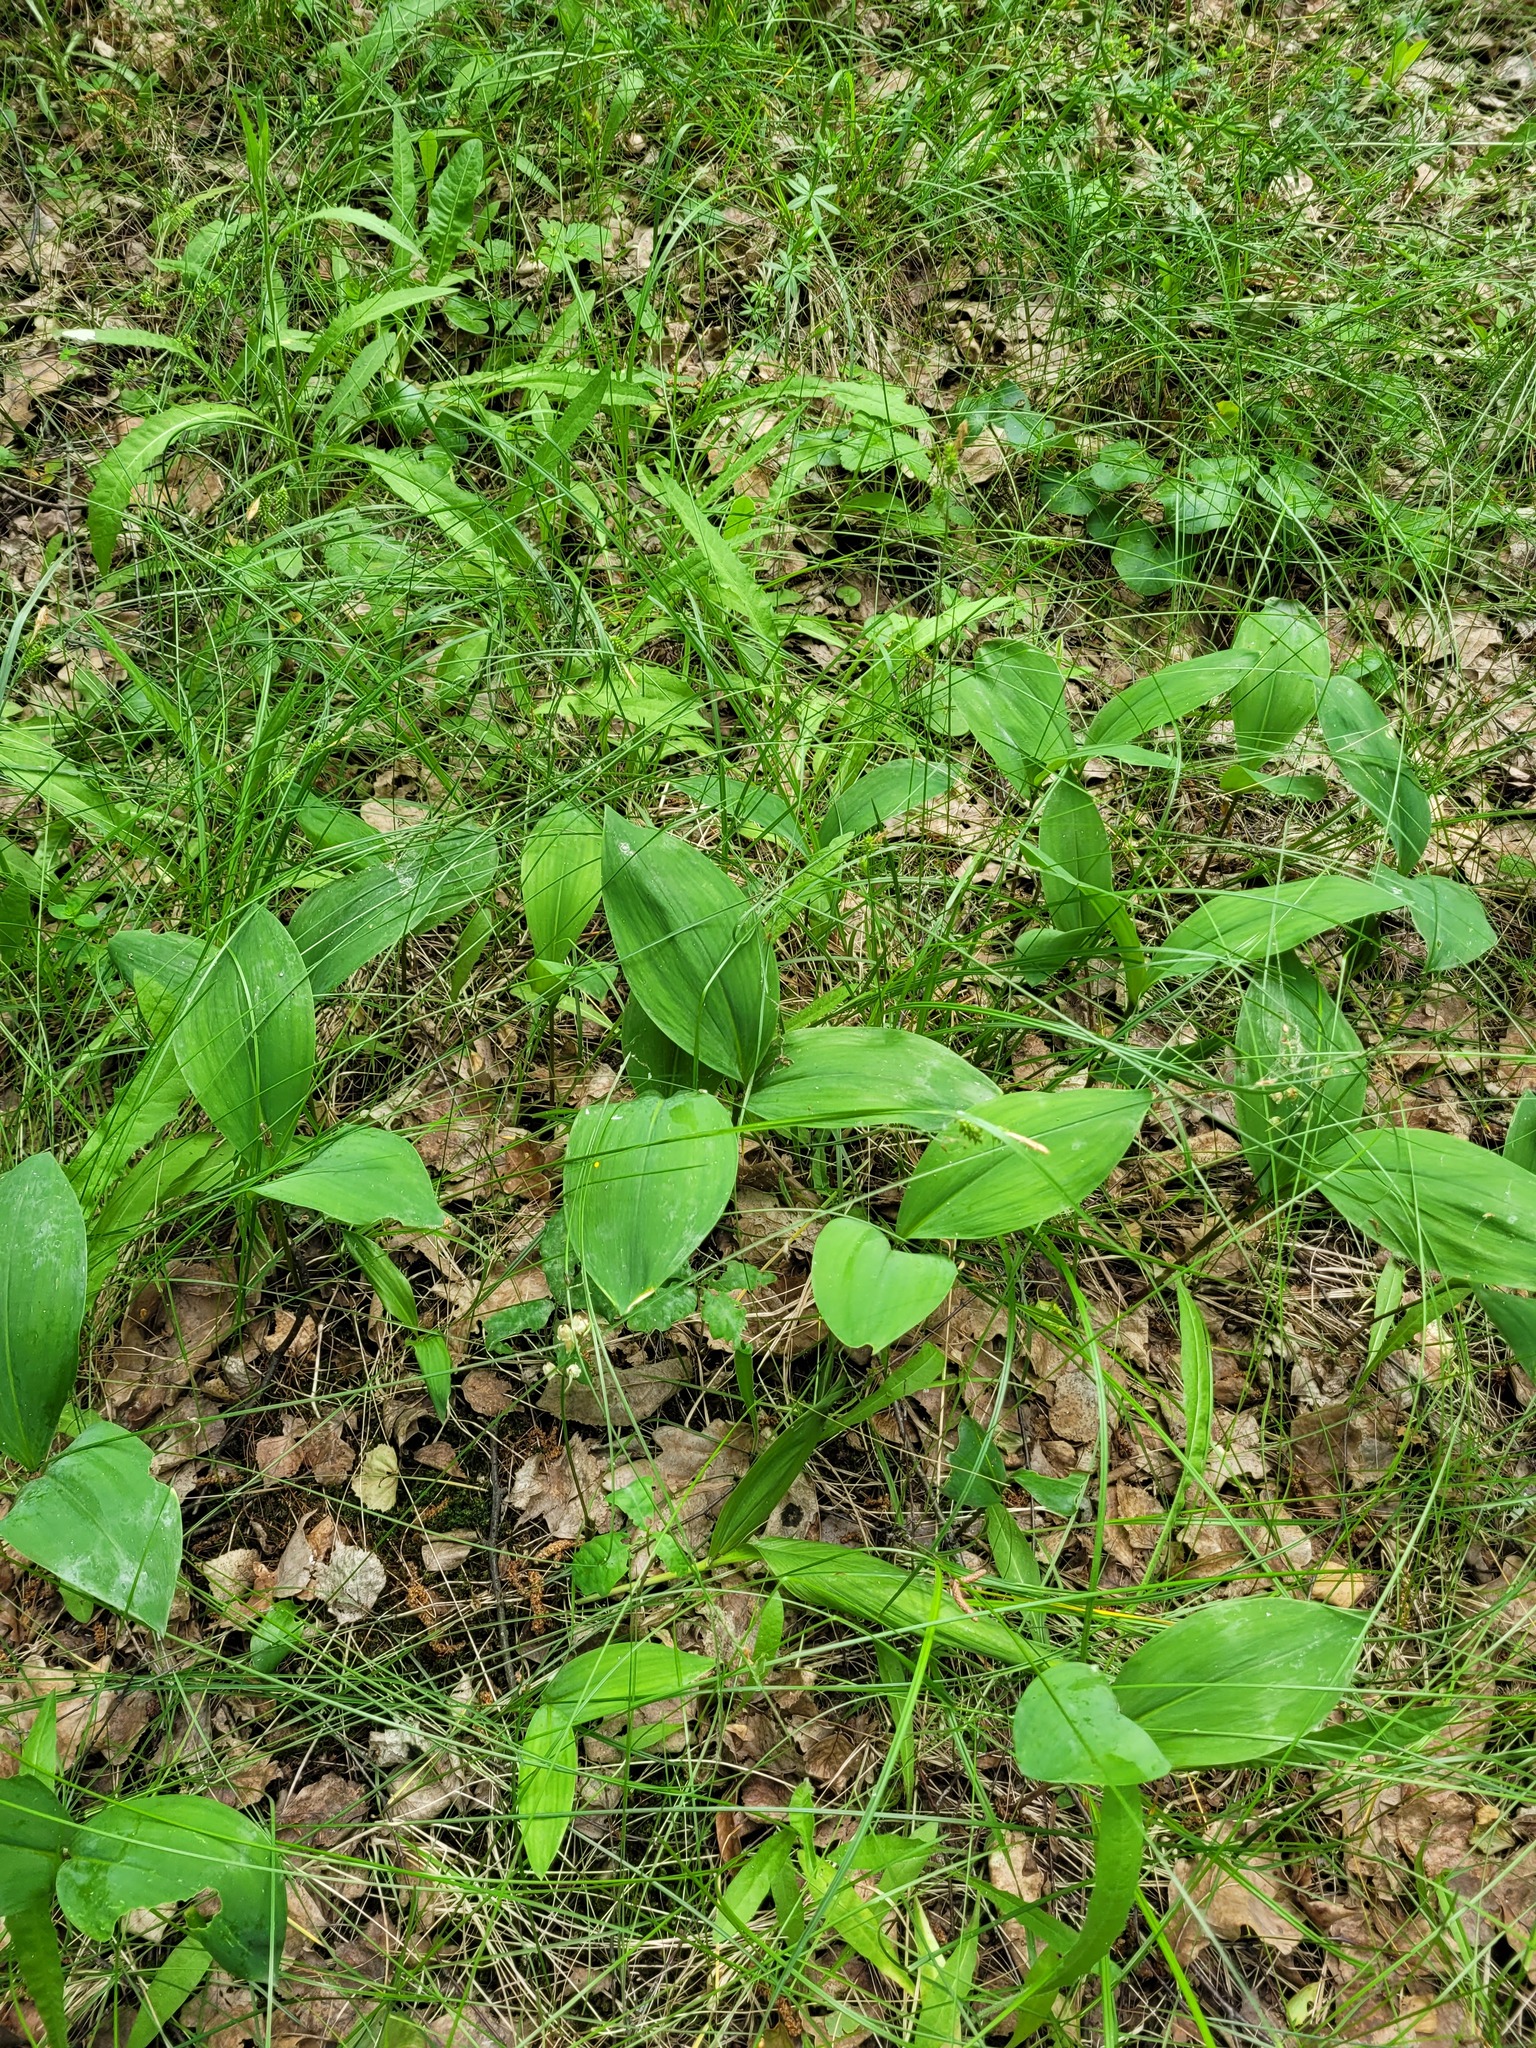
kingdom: Plantae
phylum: Tracheophyta
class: Liliopsida
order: Asparagales
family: Asparagaceae
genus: Convallaria
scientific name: Convallaria majalis
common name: Lily-of-the-valley
